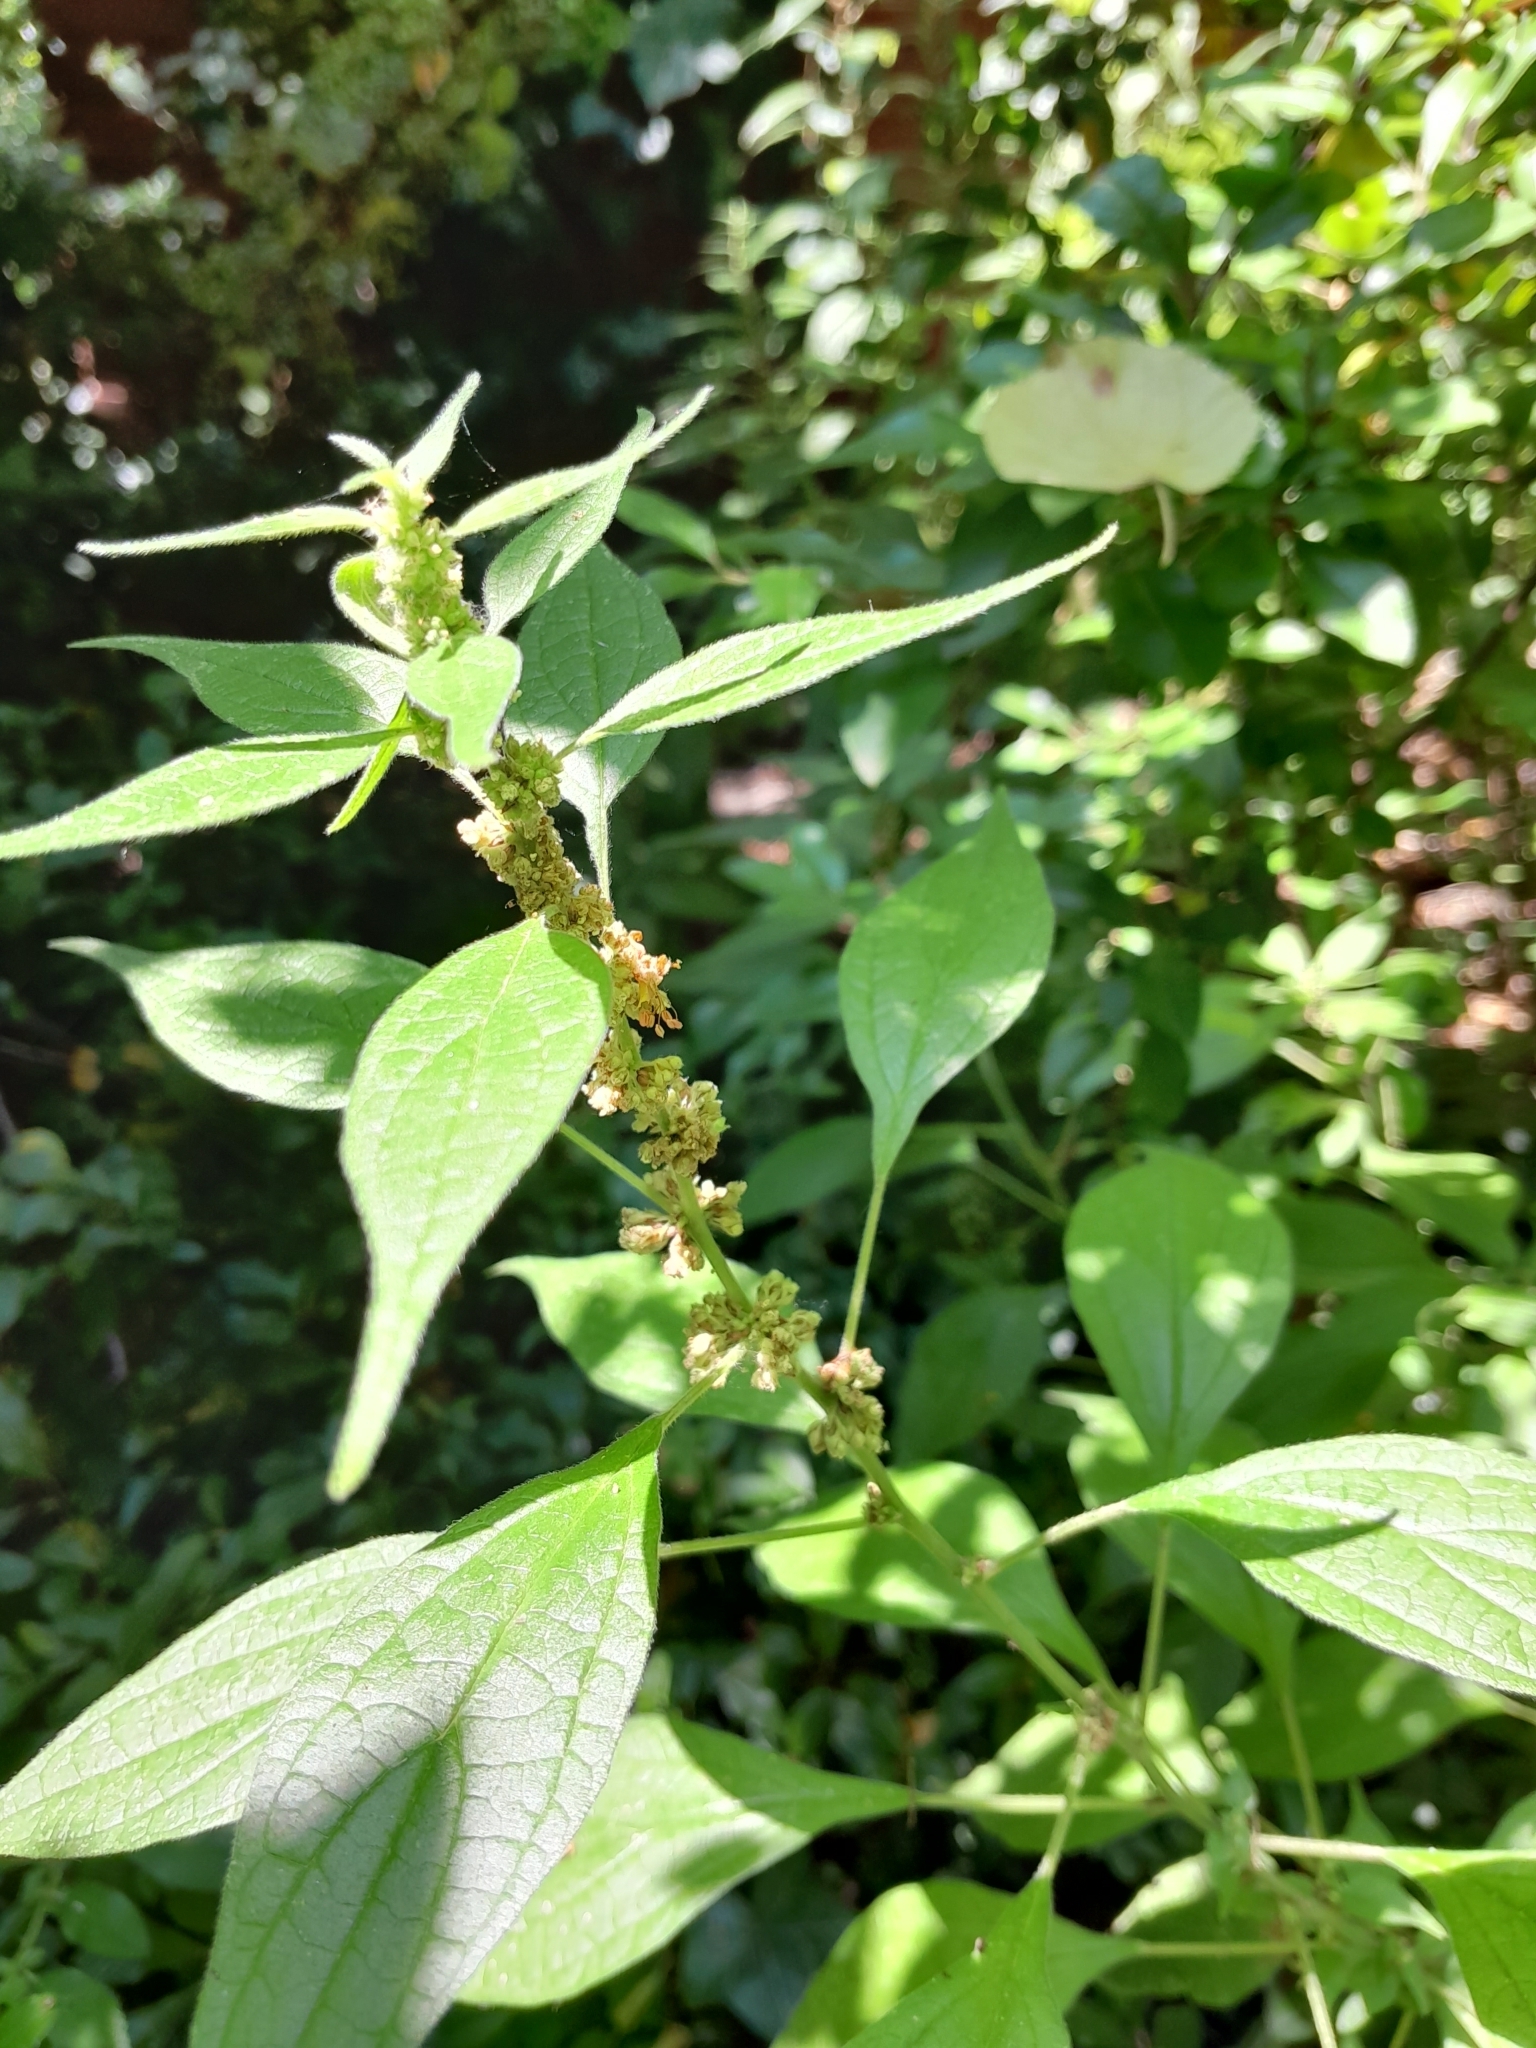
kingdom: Plantae
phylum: Tracheophyta
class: Magnoliopsida
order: Rosales
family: Urticaceae
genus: Parietaria
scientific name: Parietaria officinalis
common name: Eastern pellitory-of-the-wall
